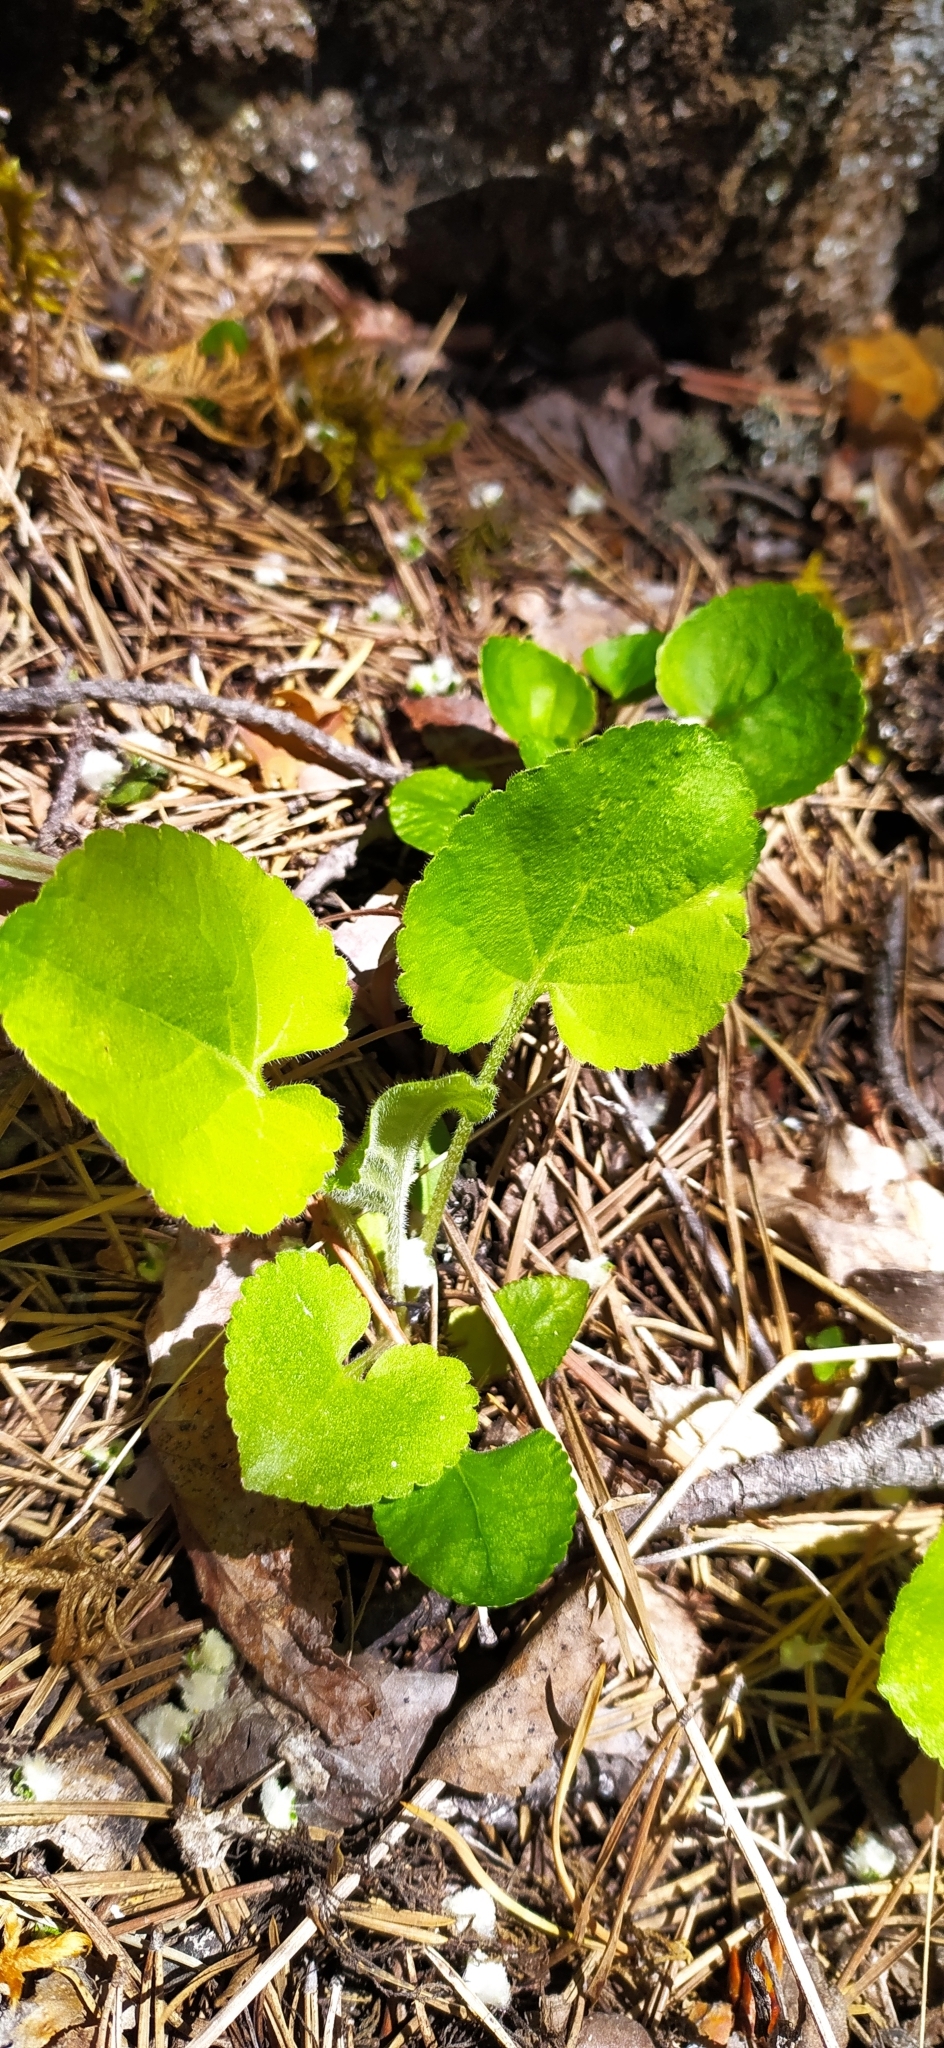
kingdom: Plantae
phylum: Tracheophyta
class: Magnoliopsida
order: Malpighiales
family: Violaceae
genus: Viola
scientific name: Viola collina
